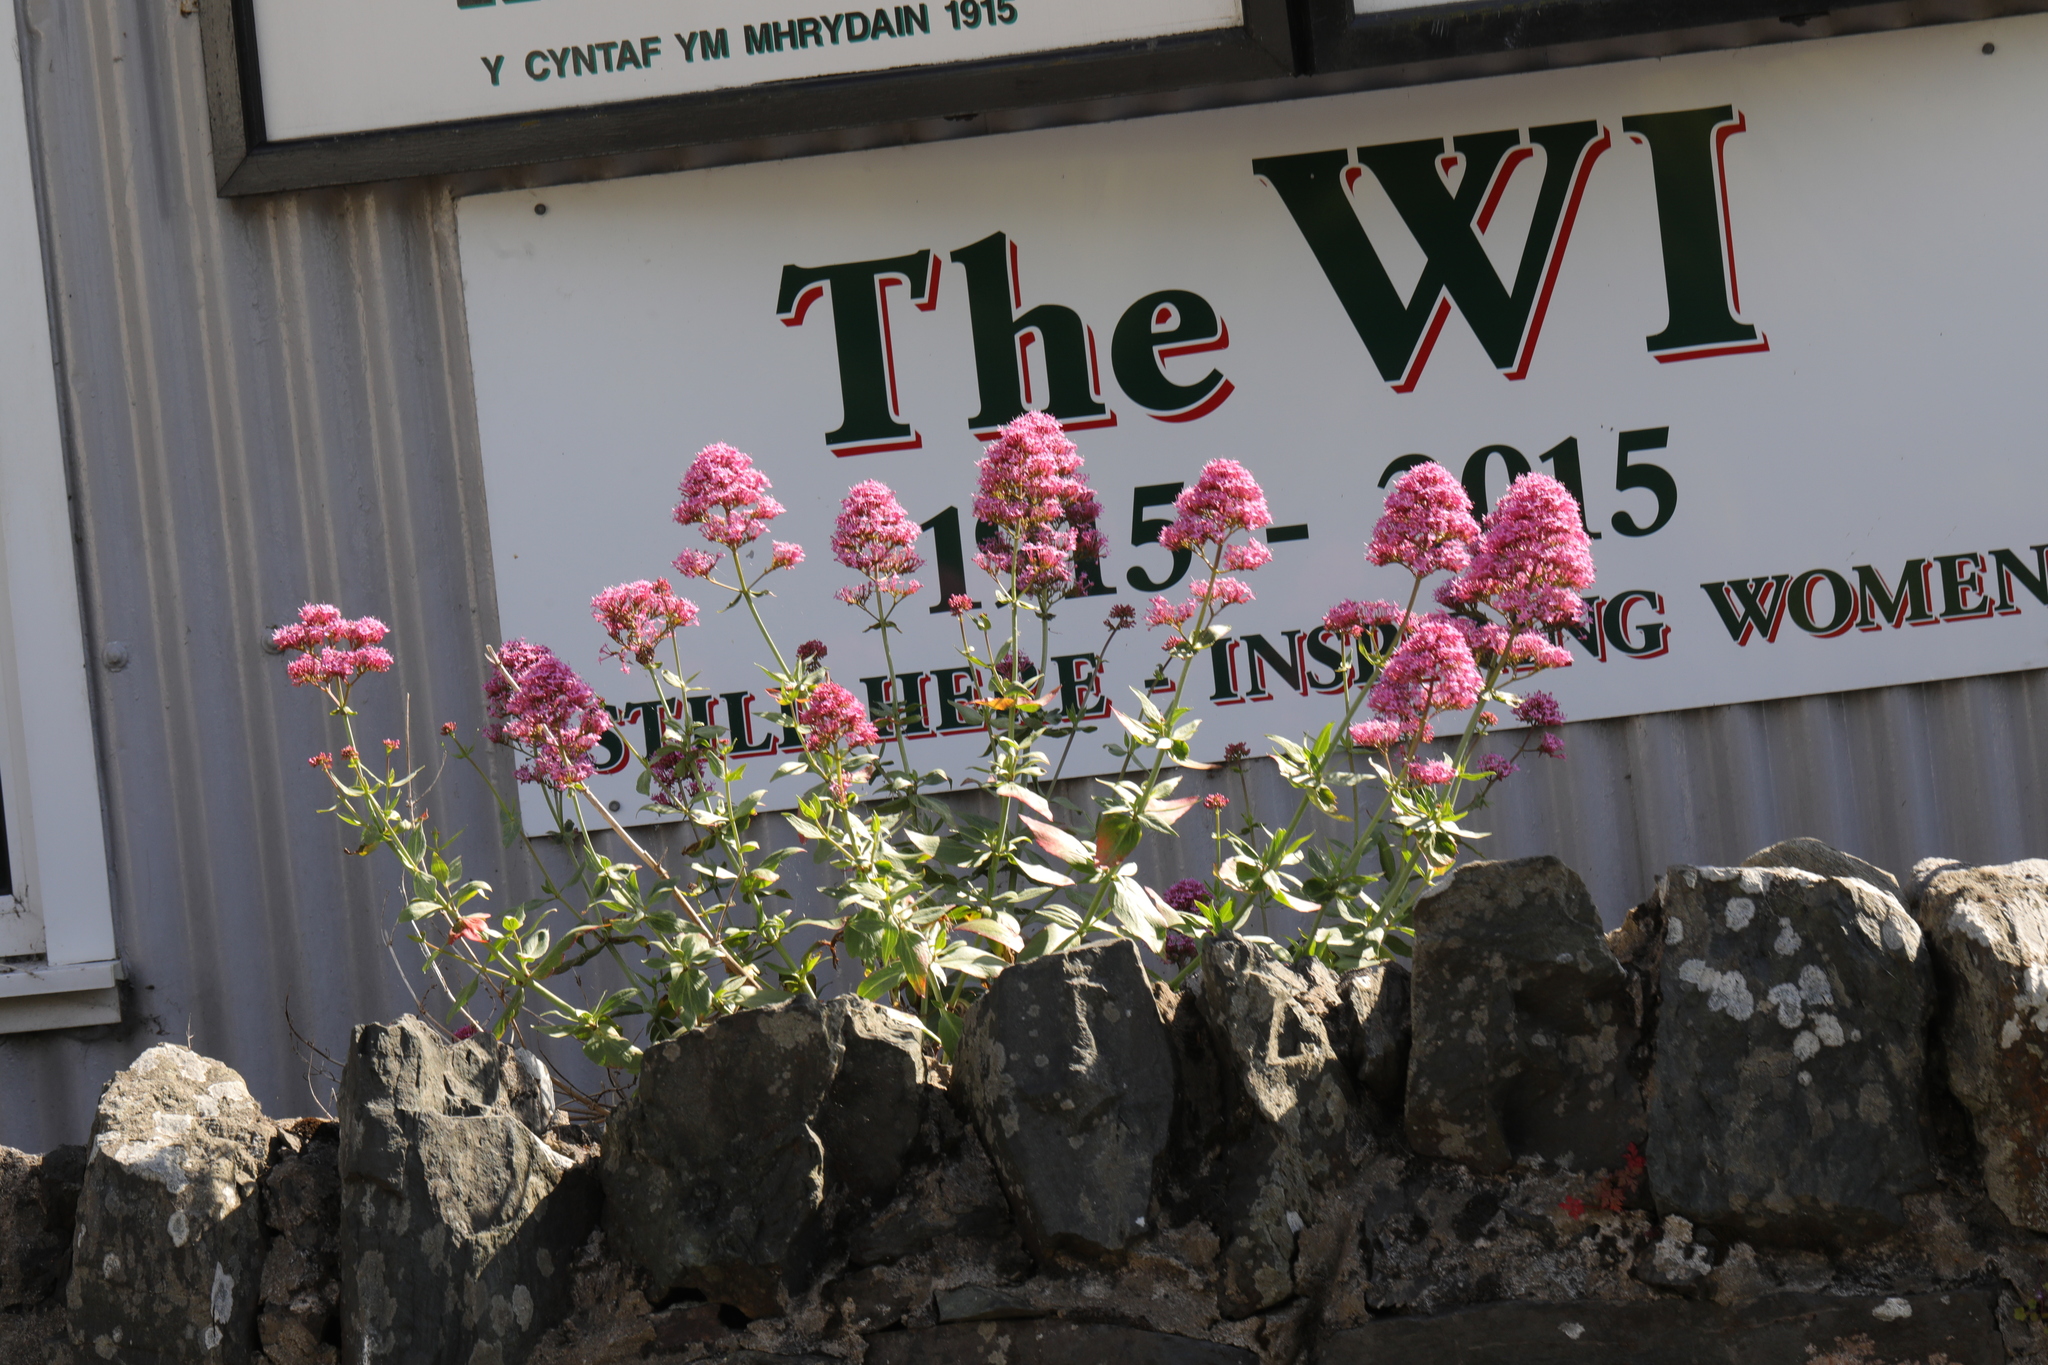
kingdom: Plantae
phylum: Tracheophyta
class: Magnoliopsida
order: Dipsacales
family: Caprifoliaceae
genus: Centranthus
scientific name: Centranthus ruber
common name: Red valerian
